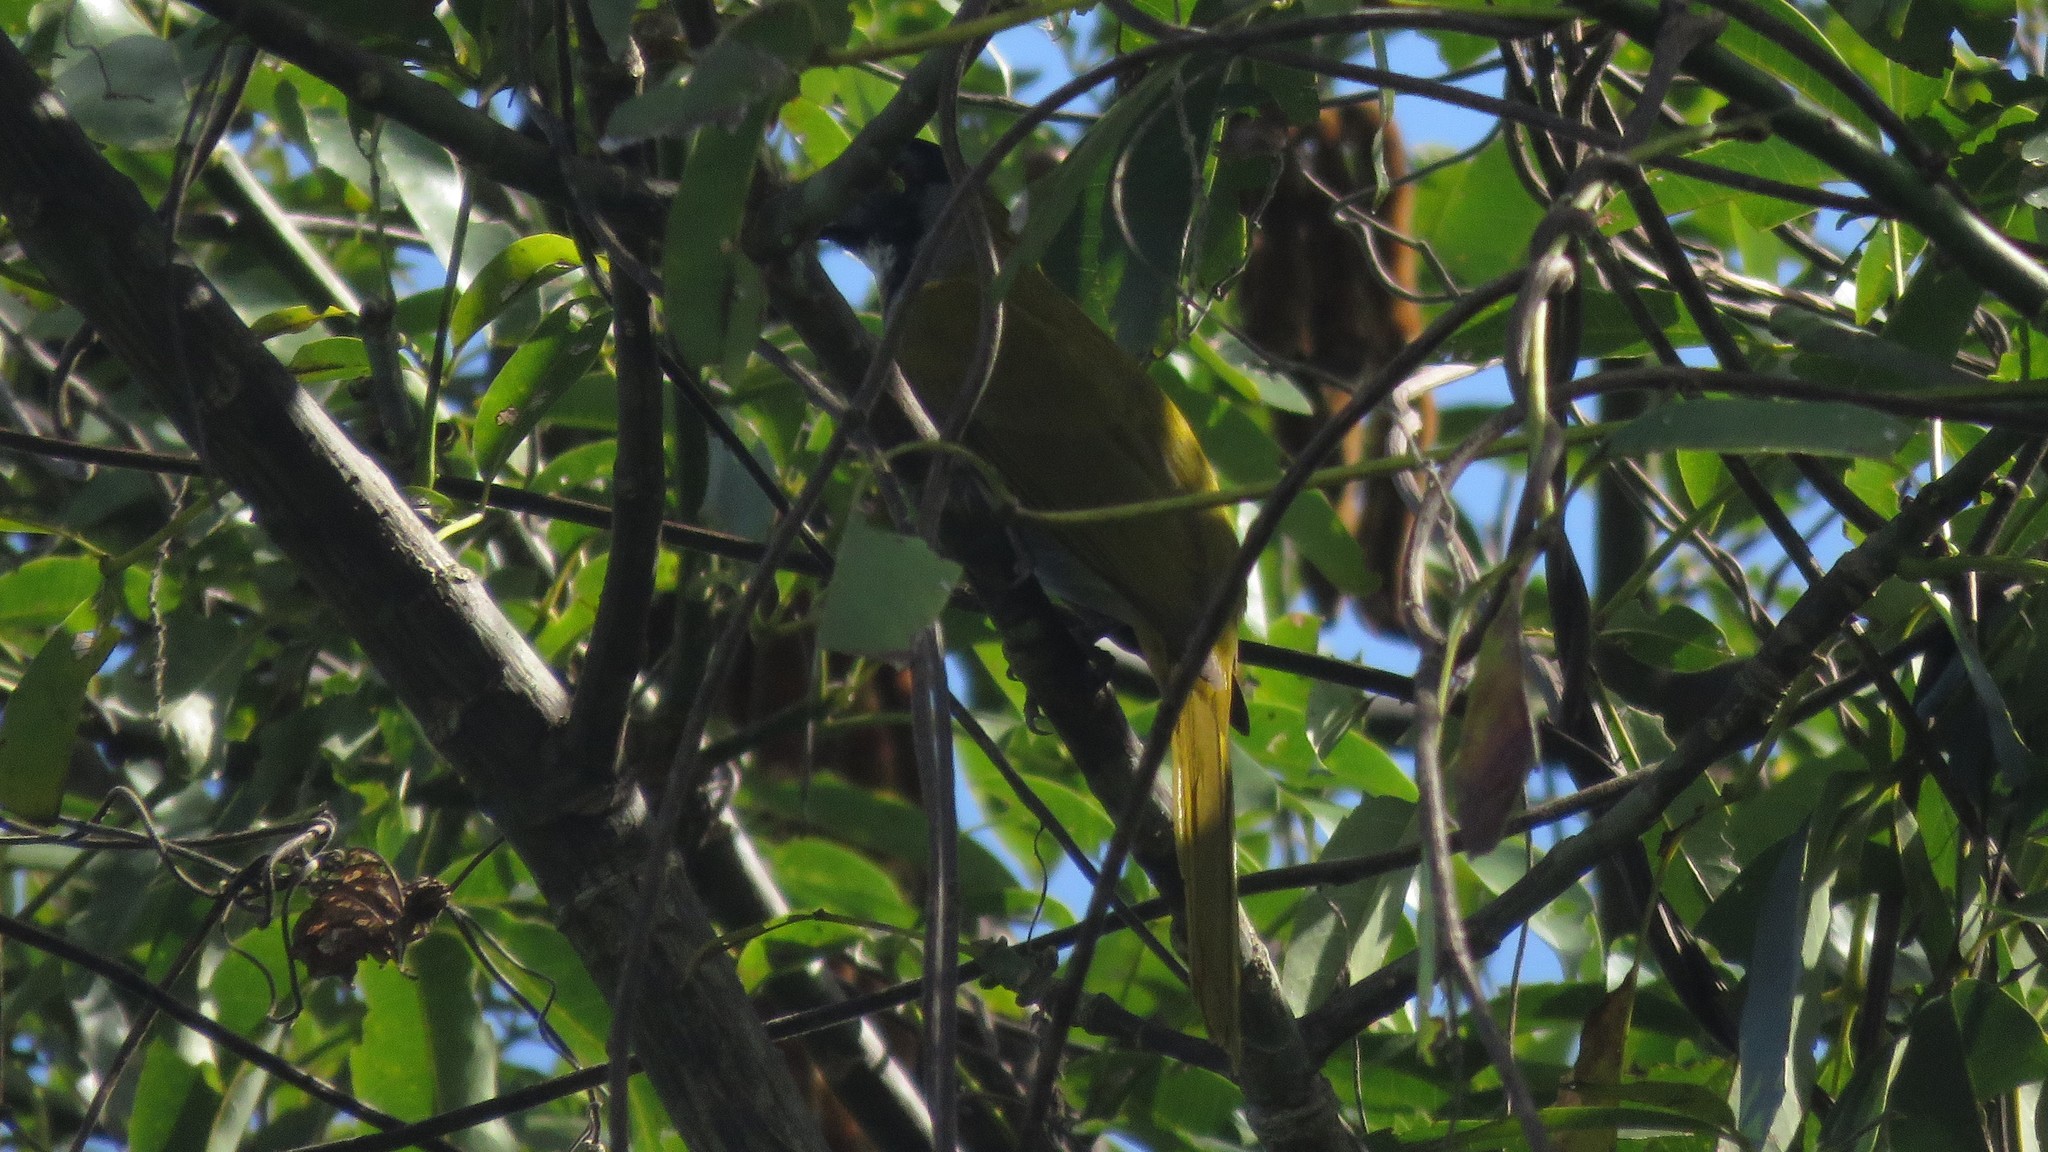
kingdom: Animalia
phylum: Chordata
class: Aves
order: Passeriformes
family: Thraupidae
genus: Saltator
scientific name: Saltator atriceps
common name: Black-headed saltator
